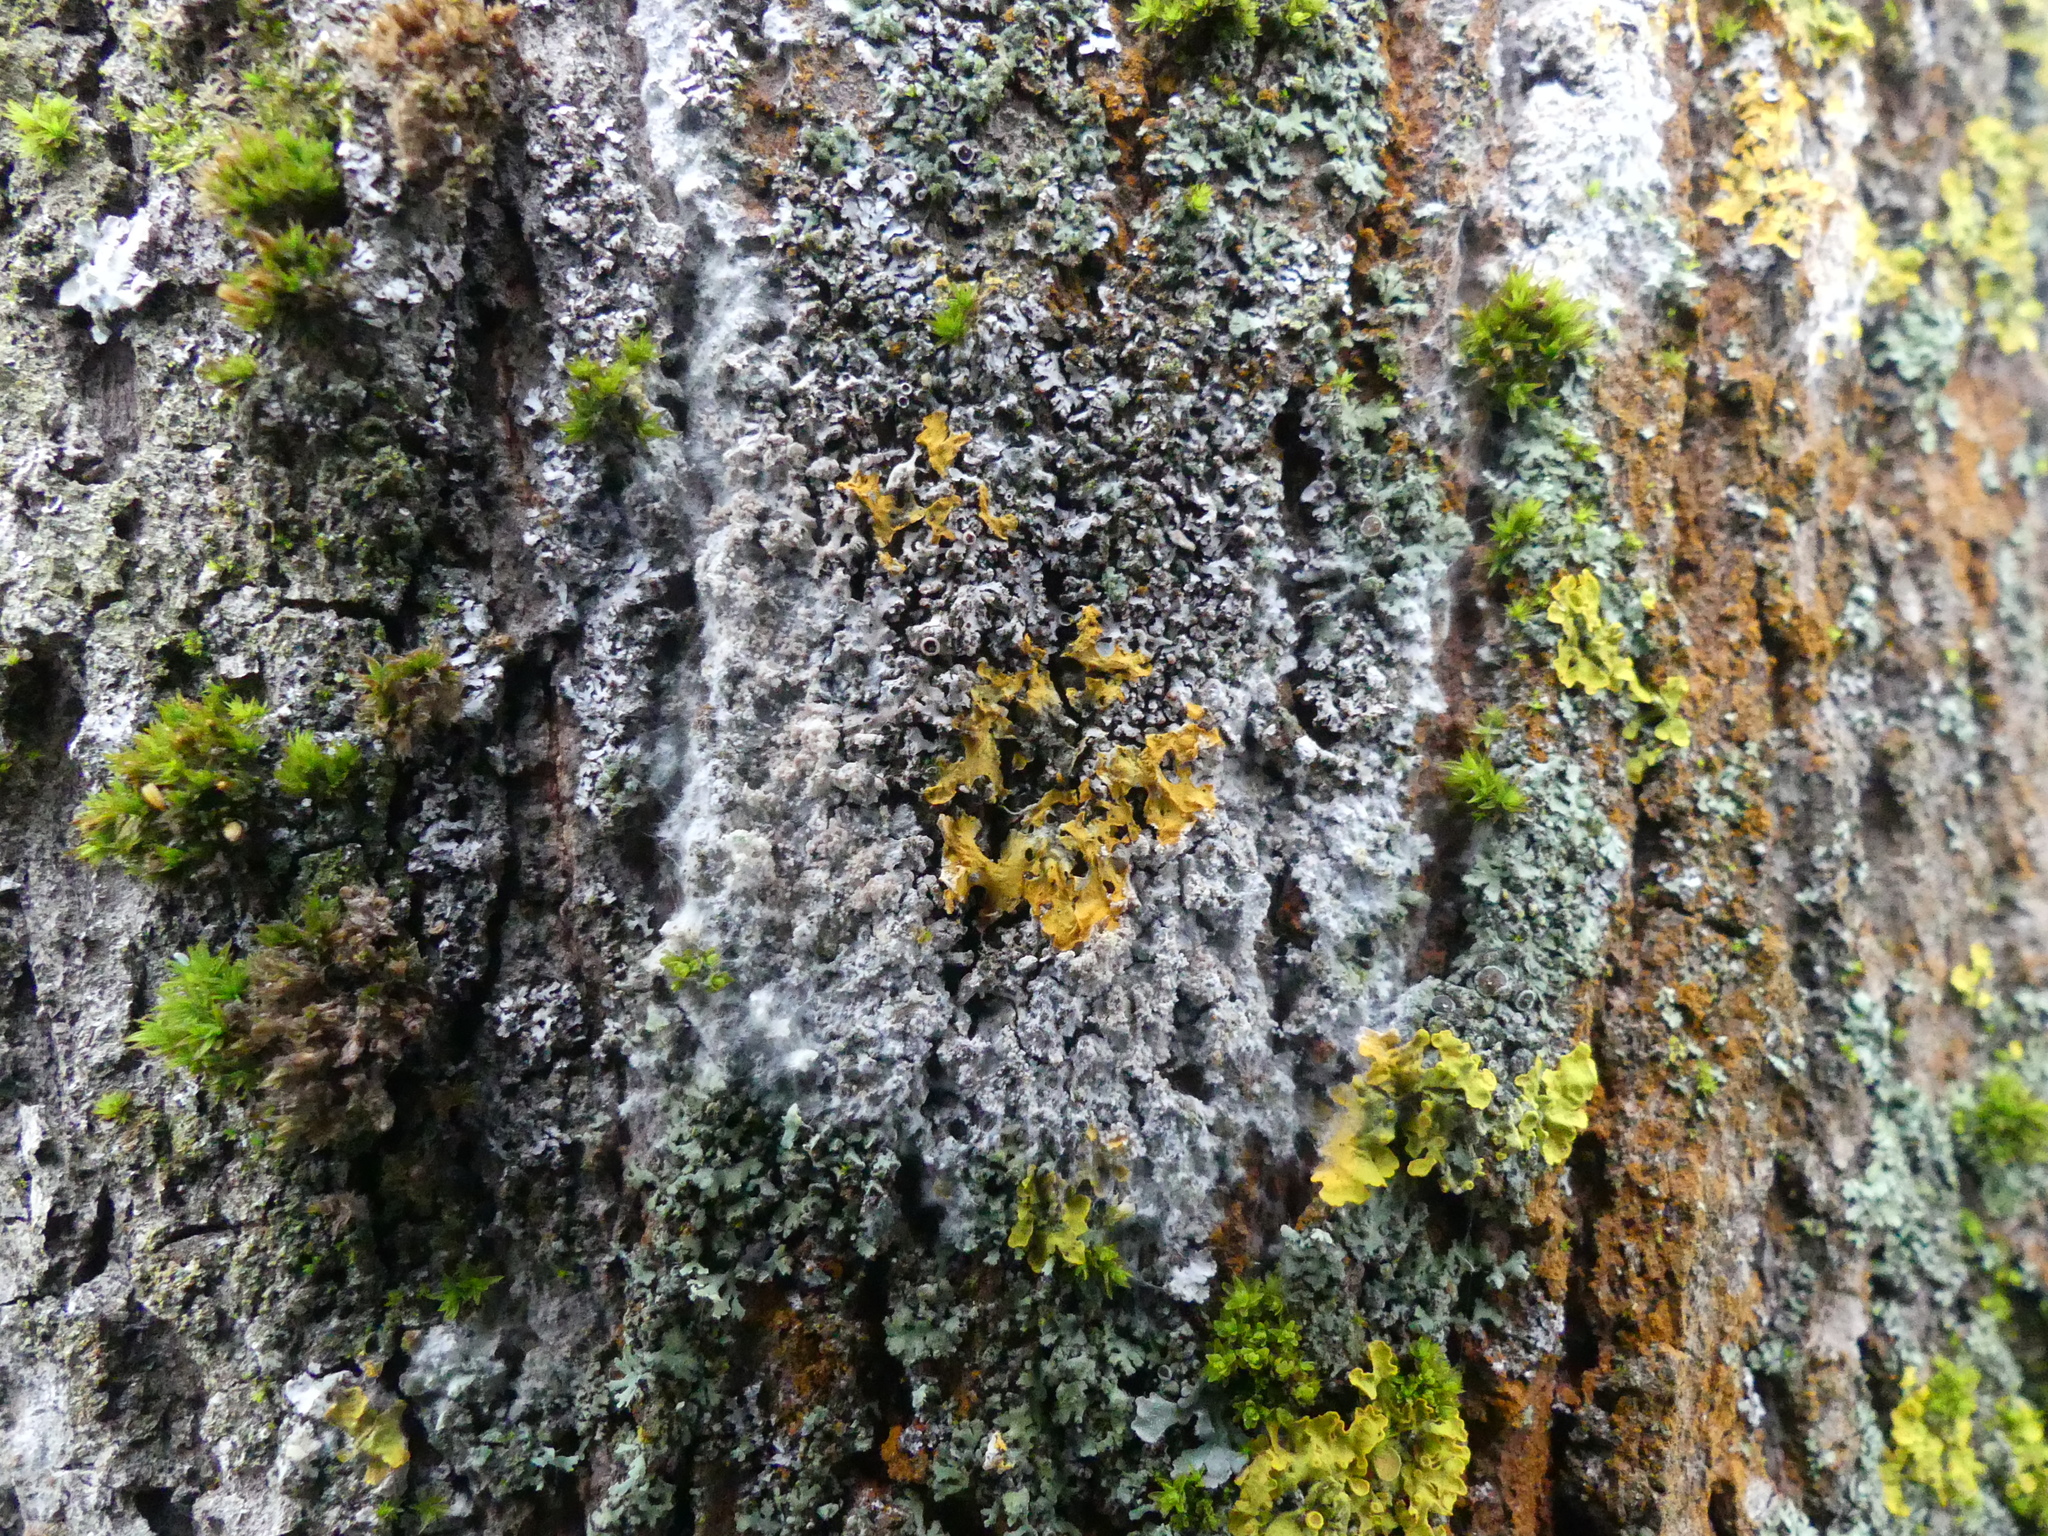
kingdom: Fungi
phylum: Ascomycota
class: Lecanoromycetes
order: Teloschistales
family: Teloschistaceae
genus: Xanthoria
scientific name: Xanthoria parietina
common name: Common orange lichen
